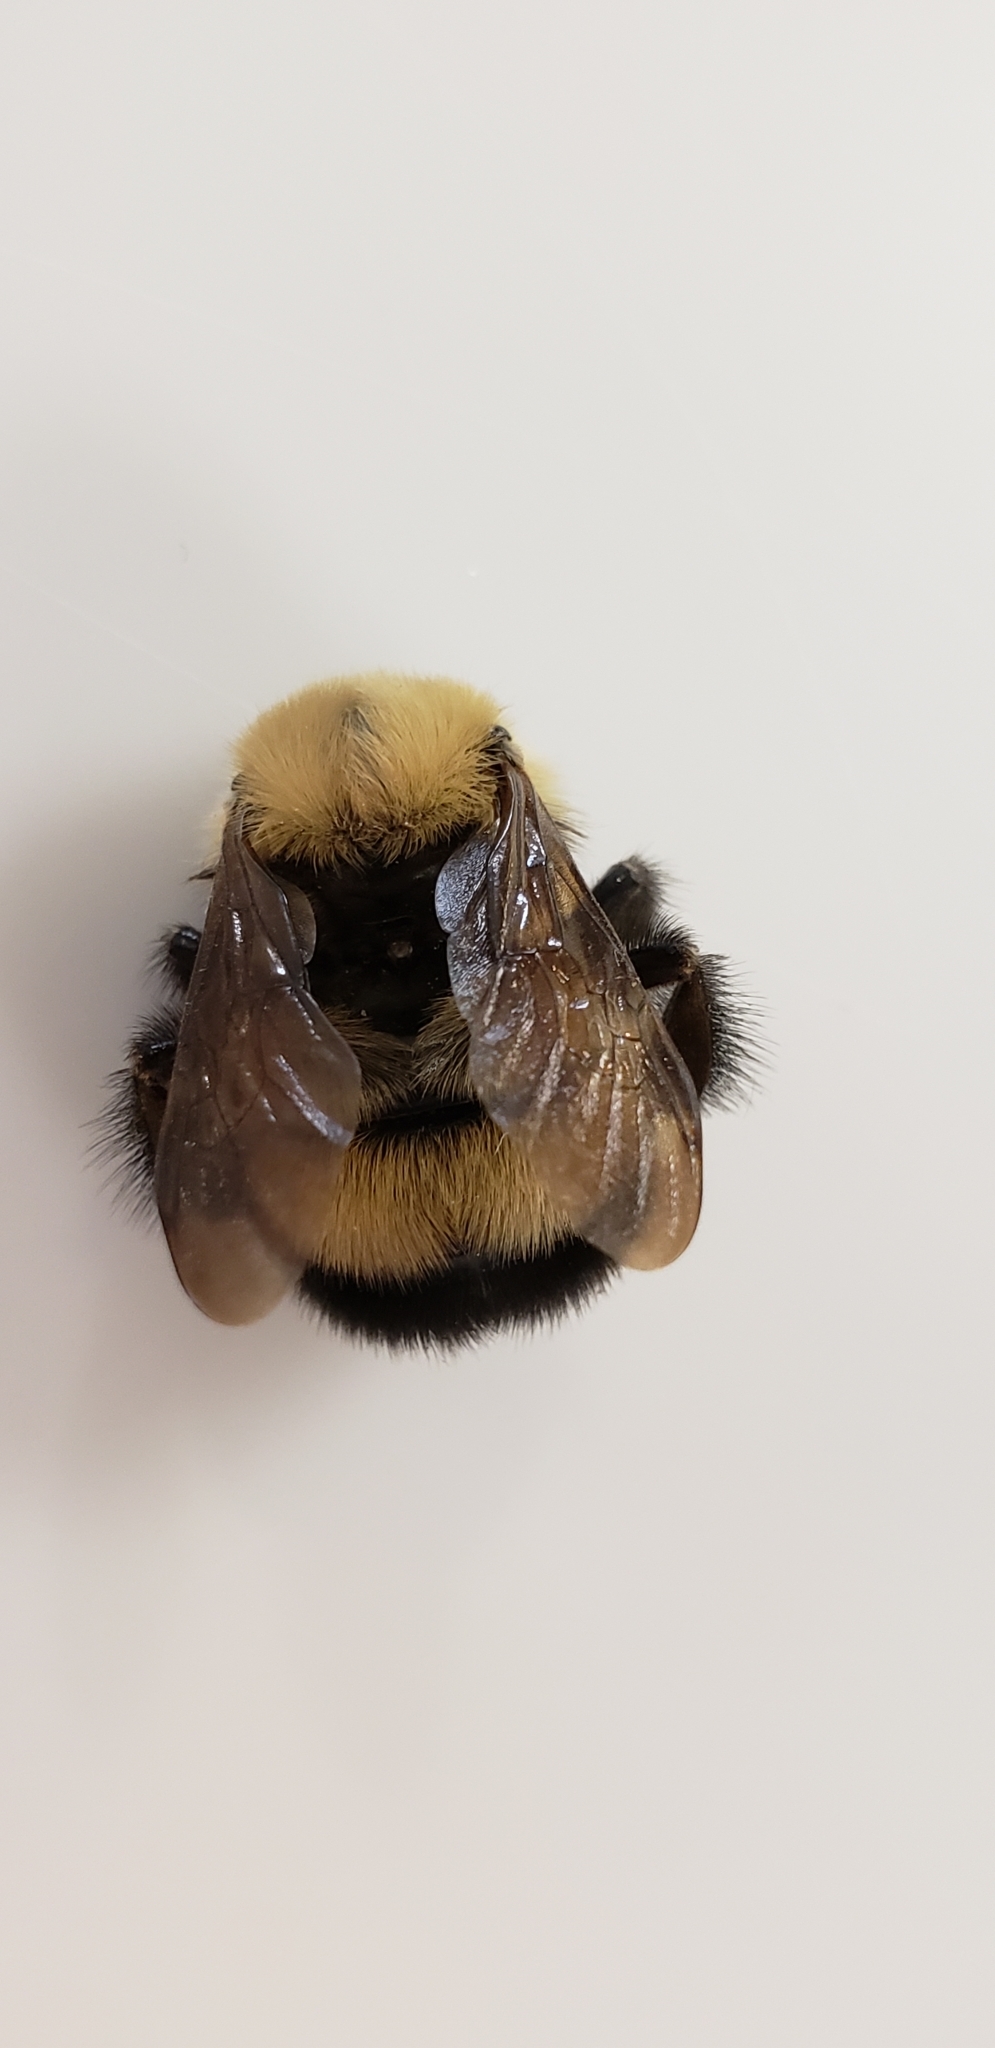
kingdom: Animalia
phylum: Arthropoda
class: Insecta
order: Hymenoptera
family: Apidae
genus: Bombus
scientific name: Bombus perplexus
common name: Confusing bumble bee
